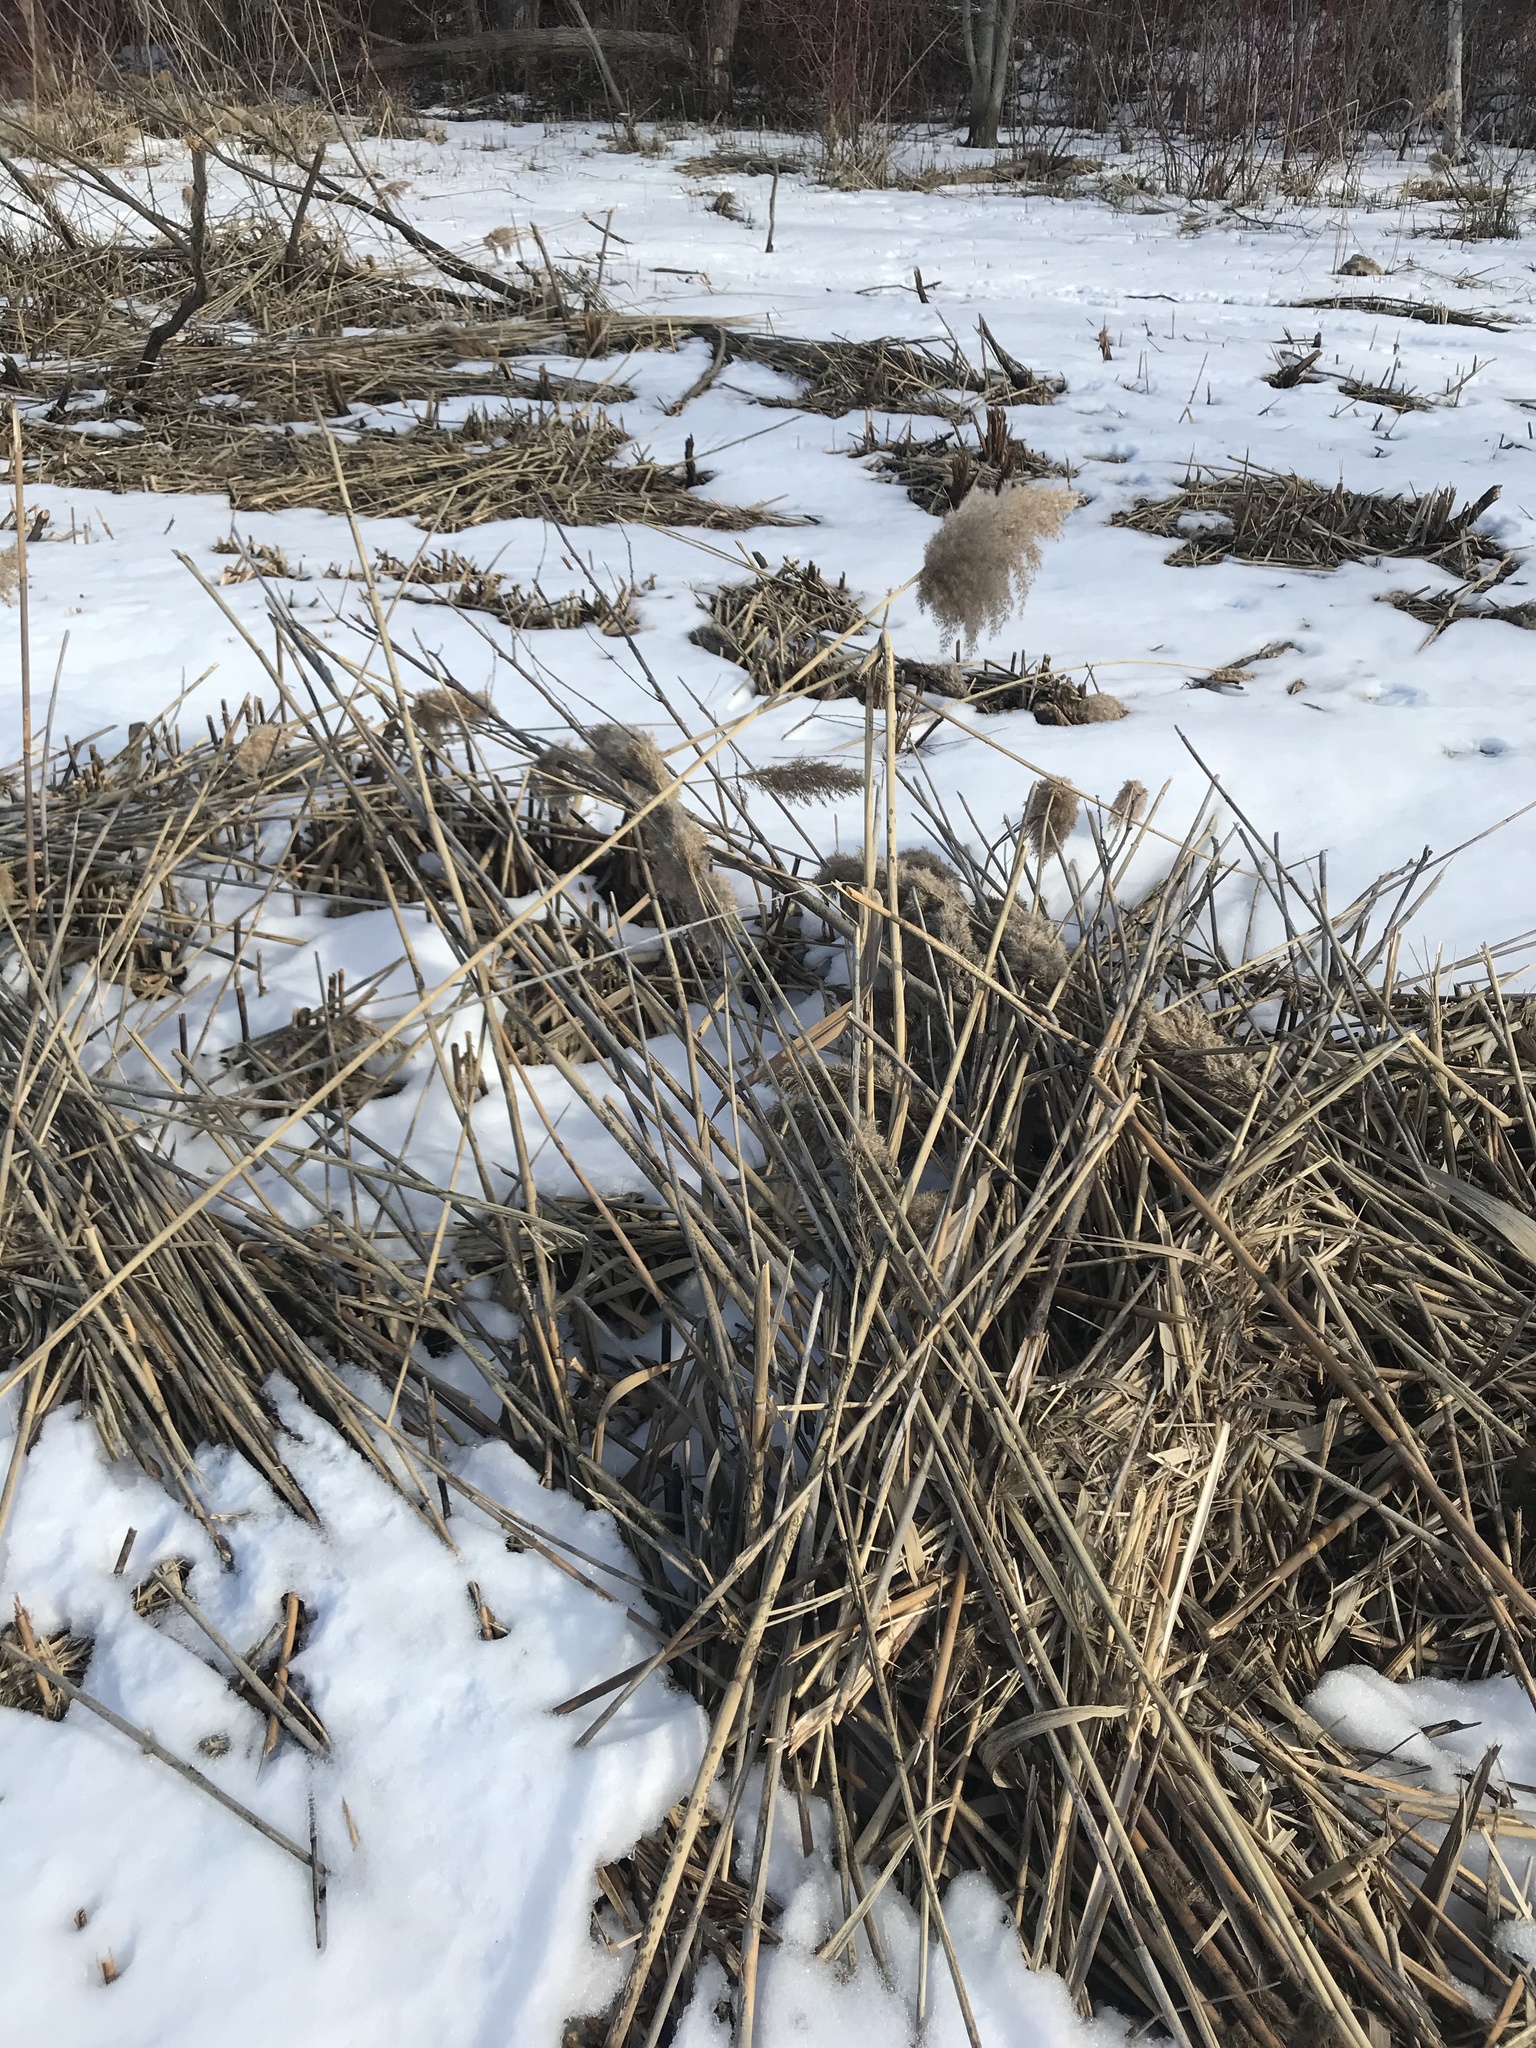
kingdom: Plantae
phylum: Tracheophyta
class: Liliopsida
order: Poales
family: Poaceae
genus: Phragmites
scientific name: Phragmites australis
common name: Common reed
